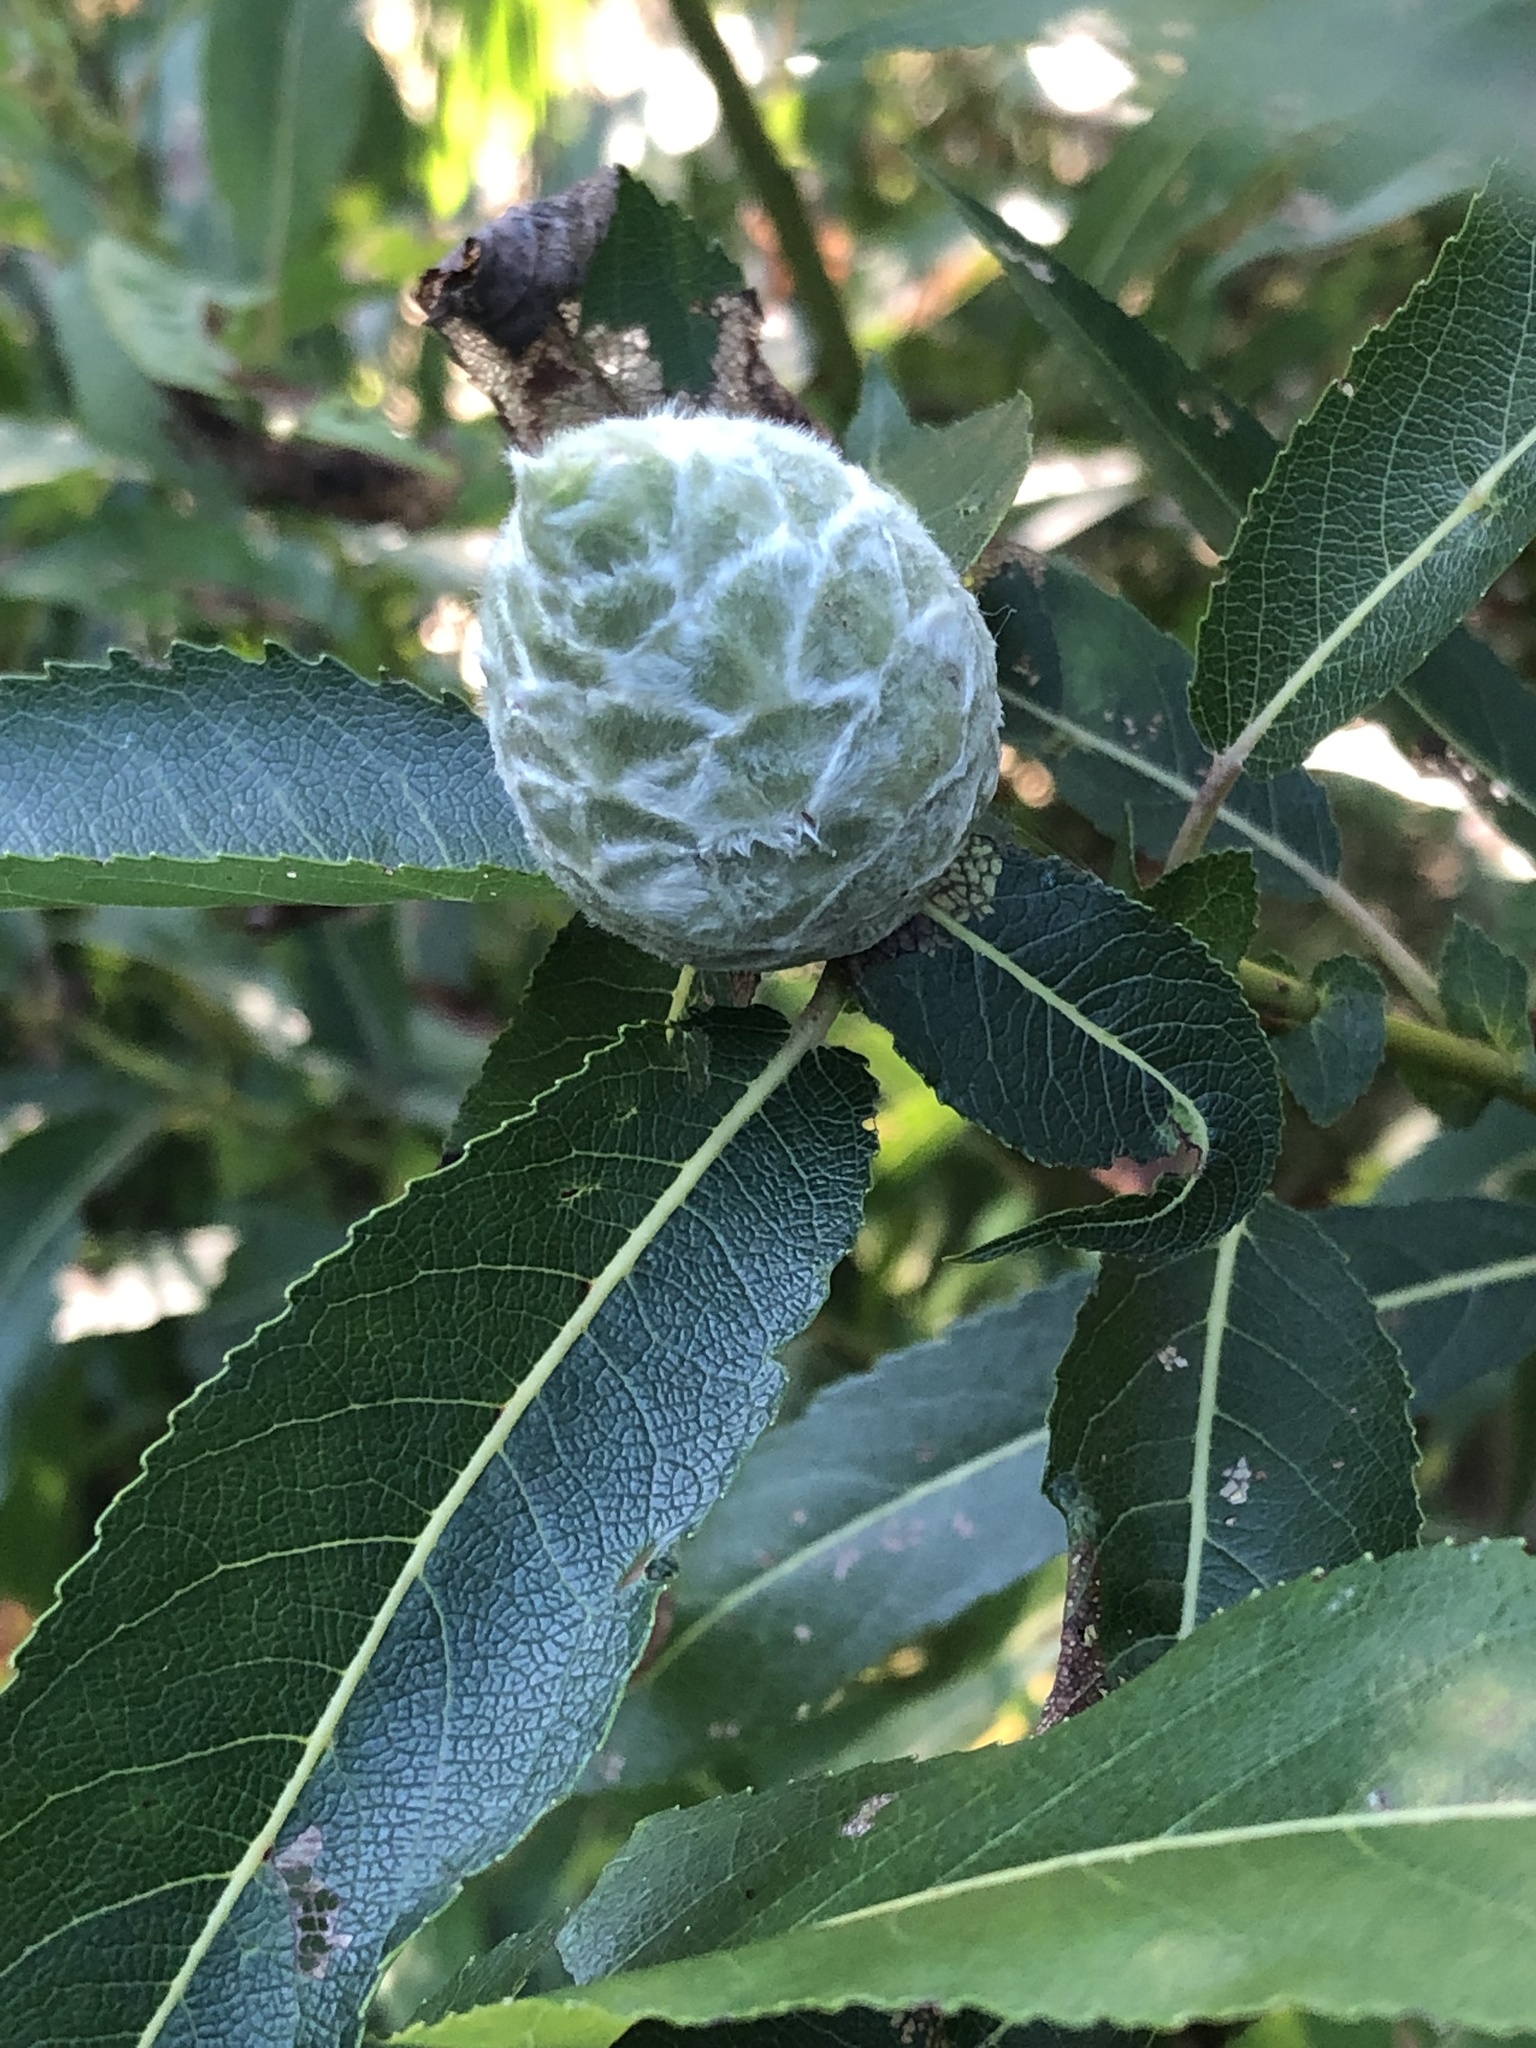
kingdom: Animalia
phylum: Arthropoda
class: Insecta
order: Diptera
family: Cecidomyiidae
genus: Rabdophaga
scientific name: Rabdophaga strobiloides
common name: Willow pinecone gall midge
